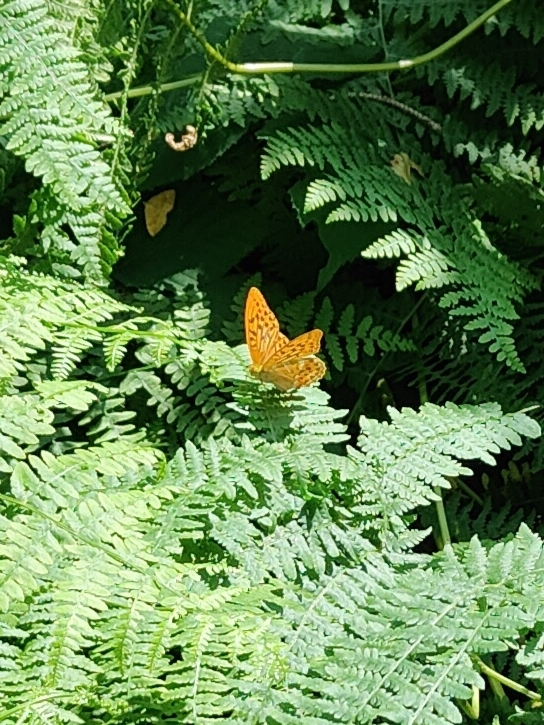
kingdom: Animalia
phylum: Arthropoda
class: Insecta
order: Lepidoptera
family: Nymphalidae
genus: Argynnis
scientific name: Argynnis paphia
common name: Silver-washed fritillary
